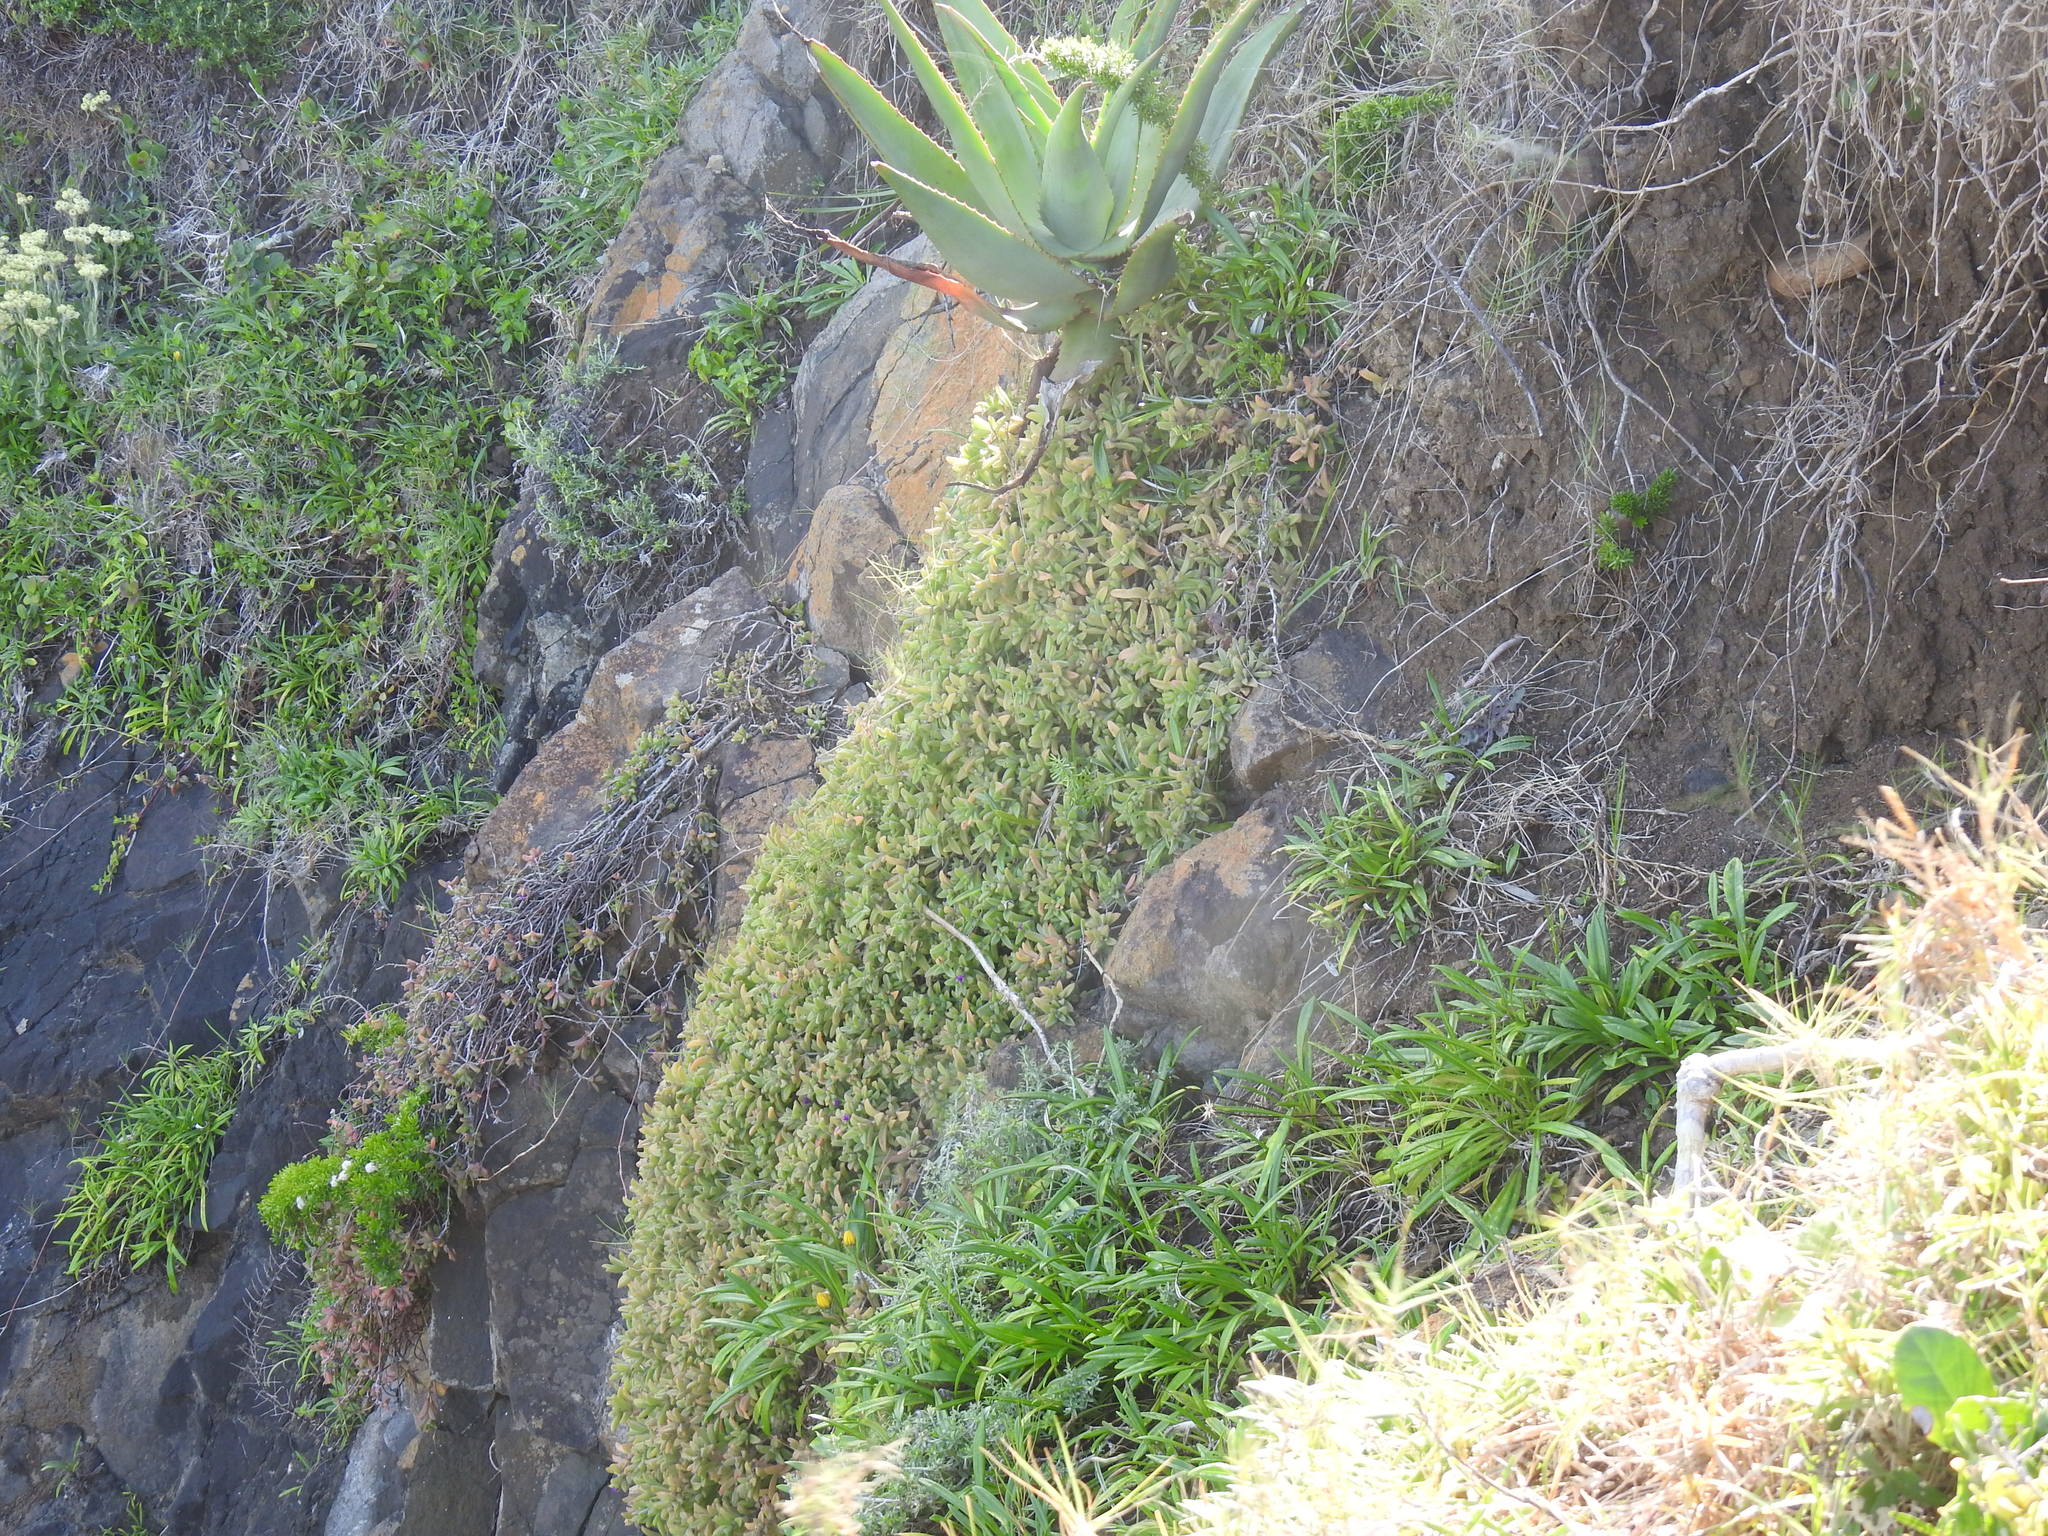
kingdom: Plantae
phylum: Tracheophyta
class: Magnoliopsida
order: Caryophyllales
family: Aizoaceae
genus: Delosperma
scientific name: Delosperma stenandrum
